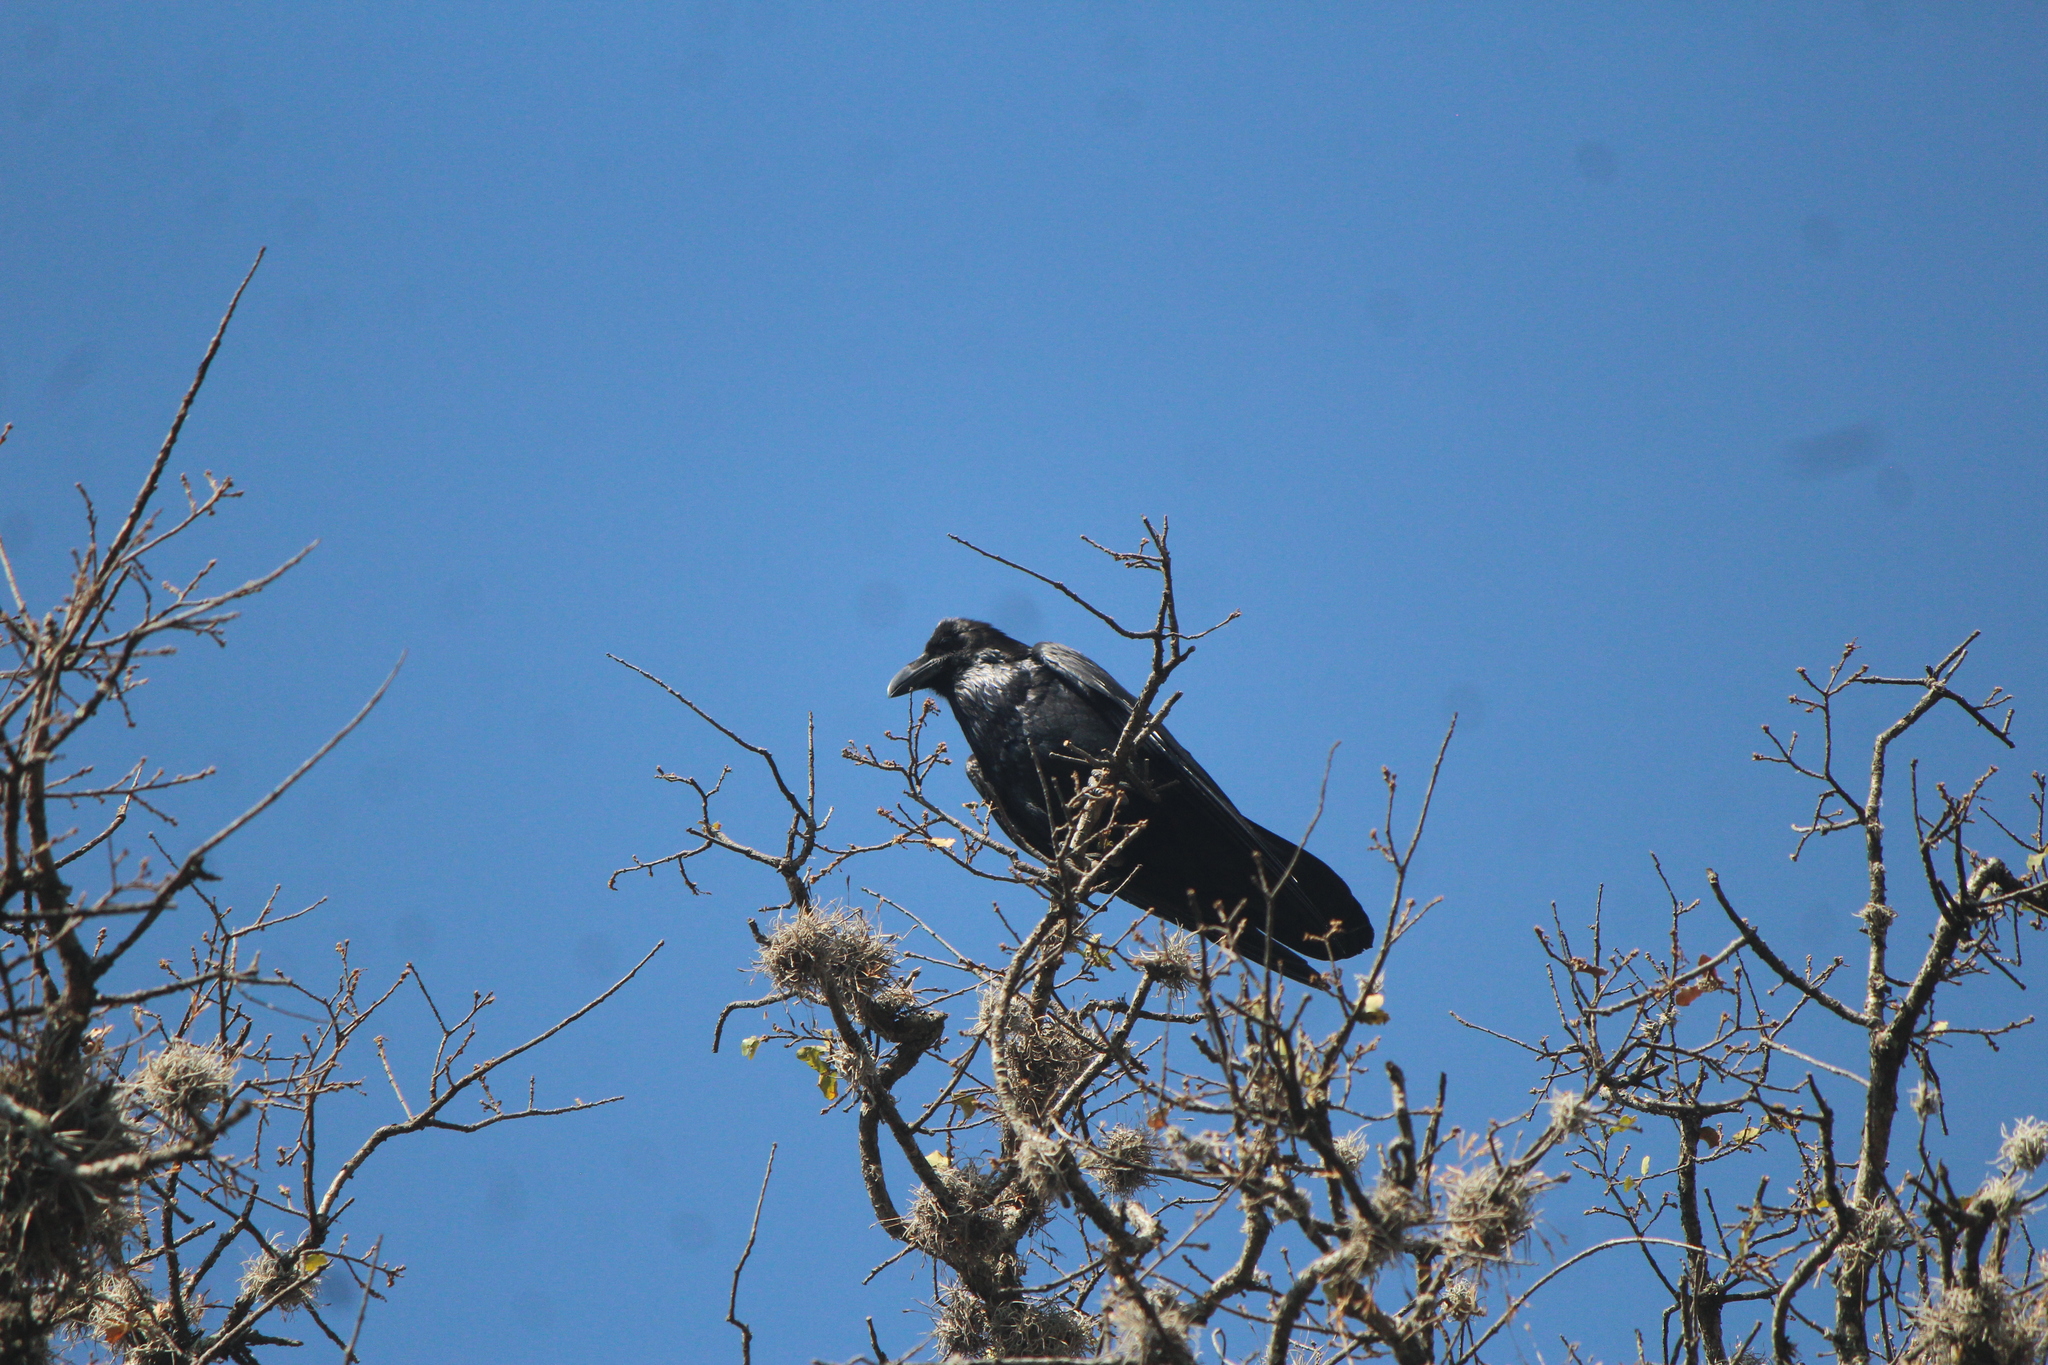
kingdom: Animalia
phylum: Chordata
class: Aves
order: Passeriformes
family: Corvidae
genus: Corvus
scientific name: Corvus corax
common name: Common raven
